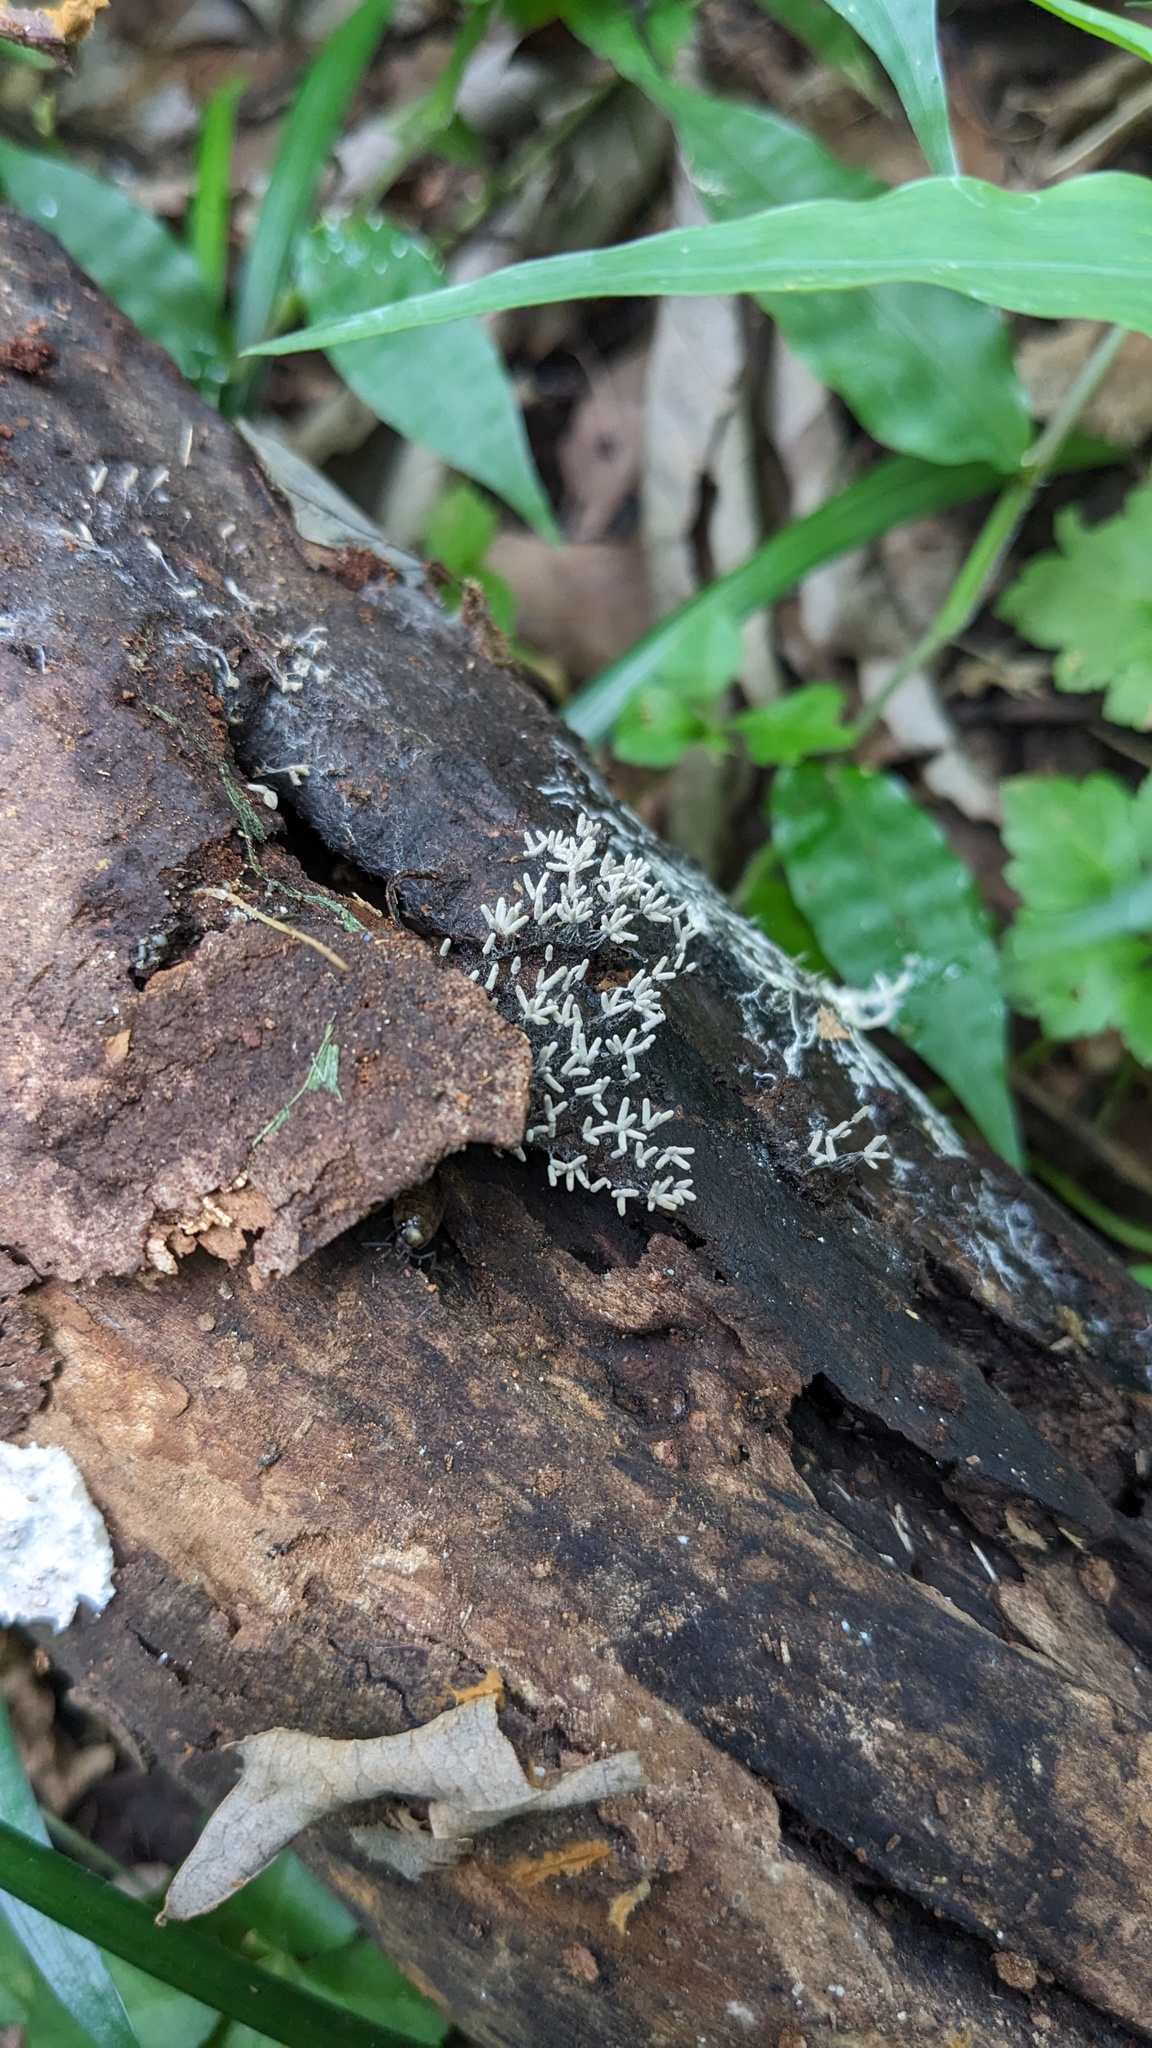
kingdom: Protozoa
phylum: Mycetozoa
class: Myxomycetes
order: Trichiales
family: Arcyriaceae
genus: Arcyria
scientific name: Arcyria cinerea
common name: White carnival candy slime mold
